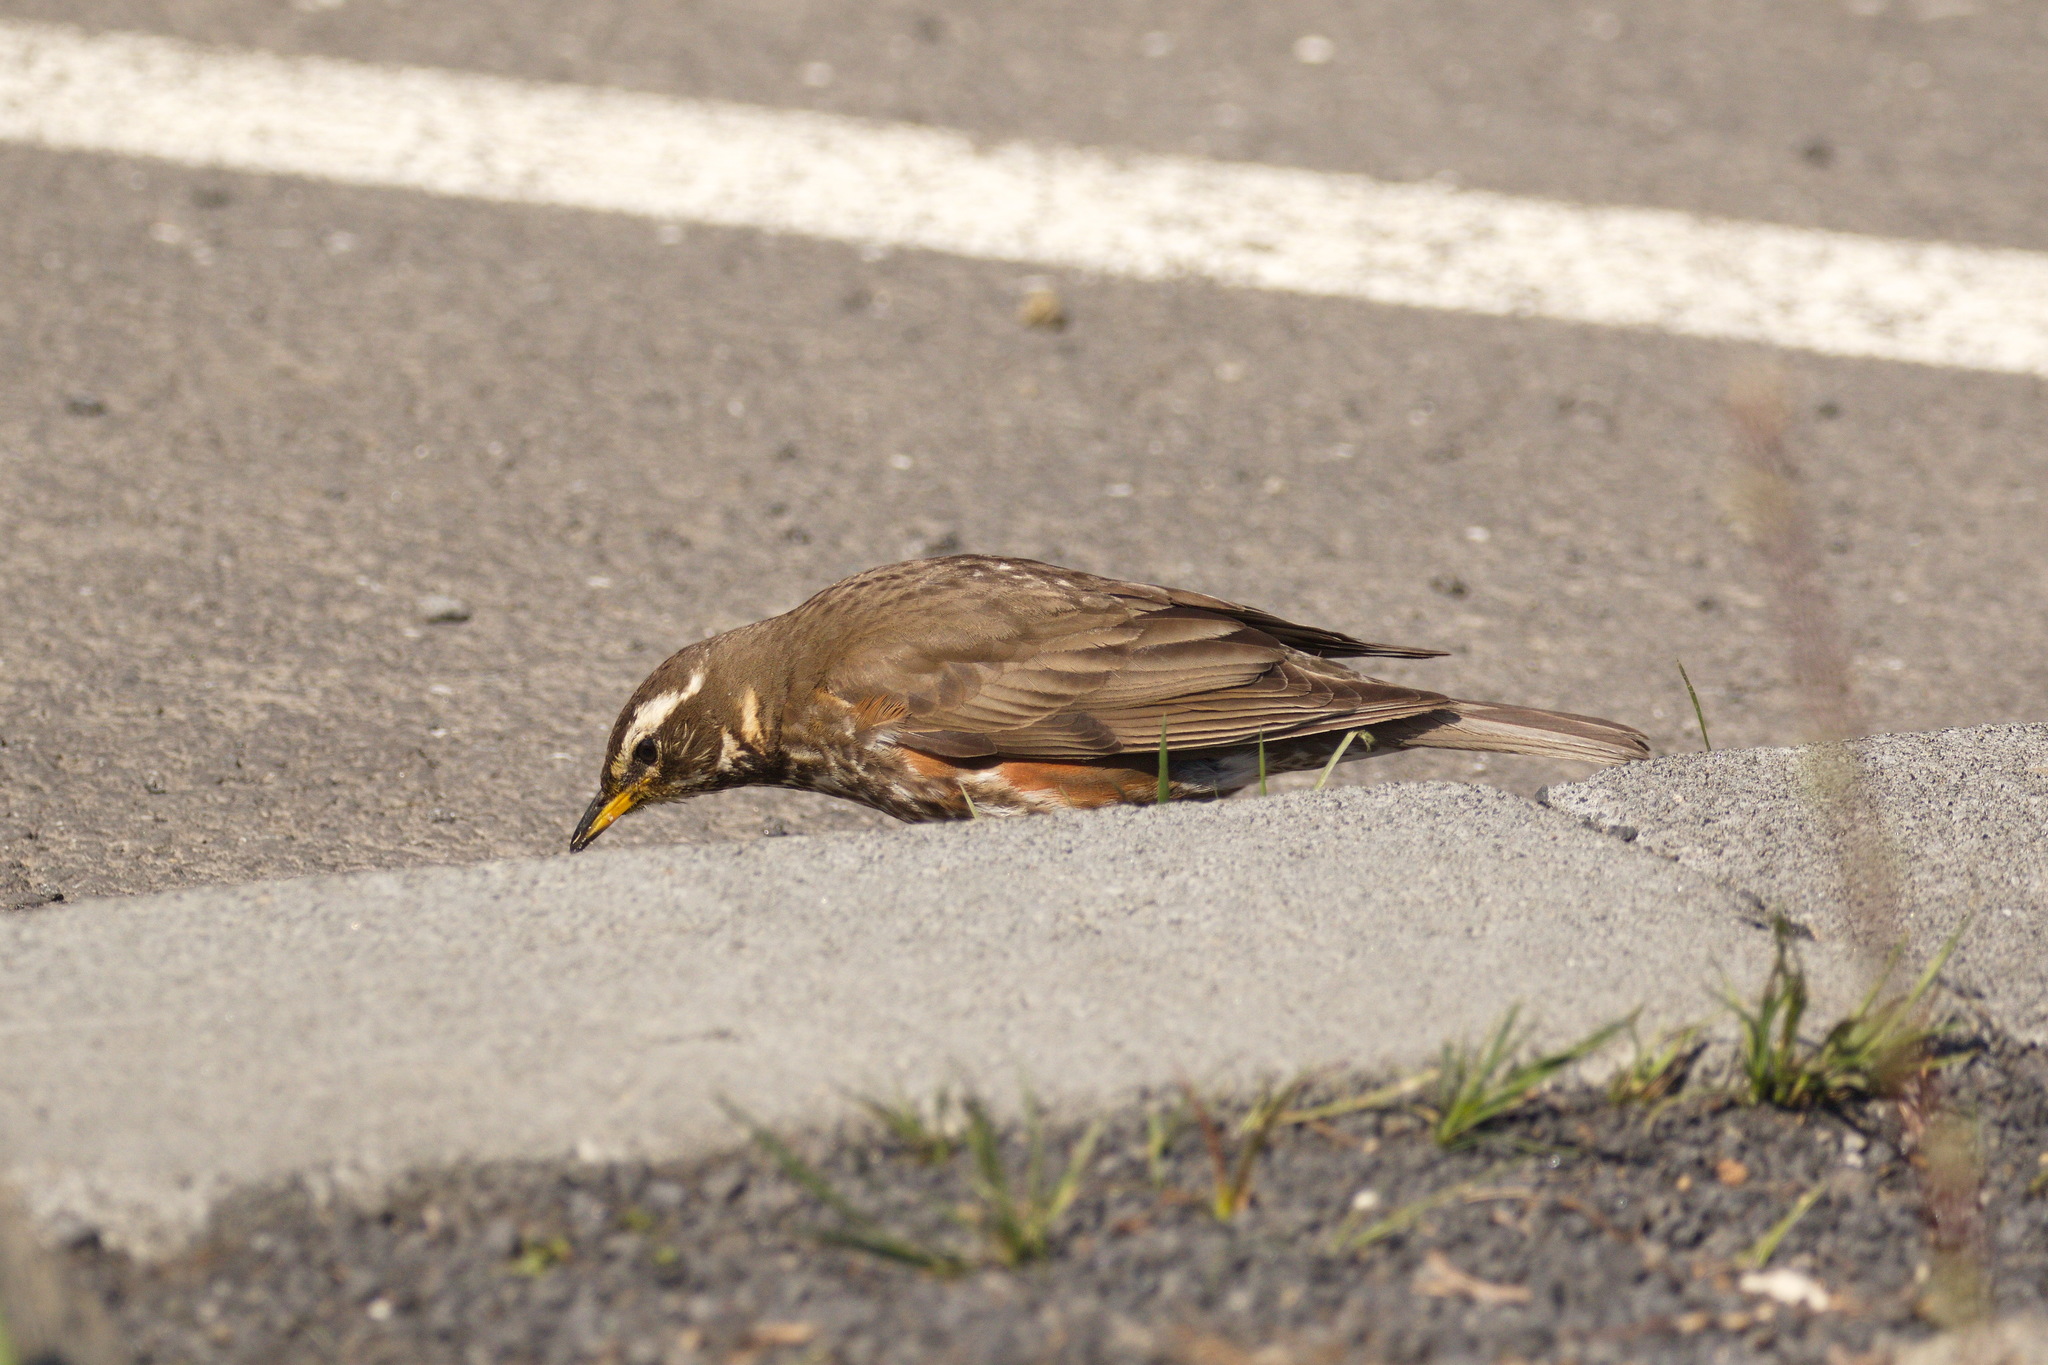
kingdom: Animalia
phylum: Chordata
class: Aves
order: Passeriformes
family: Turdidae
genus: Turdus
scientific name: Turdus iliacus
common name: Redwing
